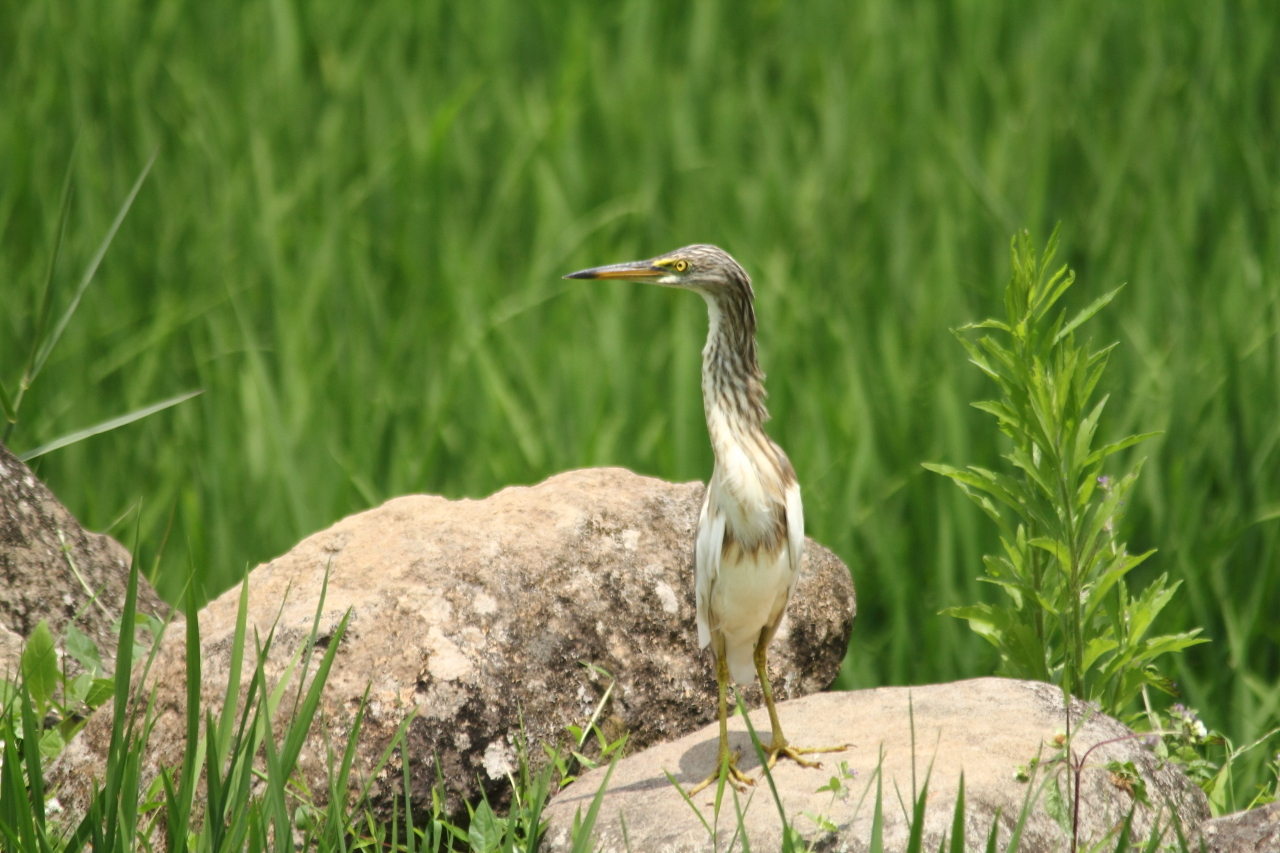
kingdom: Animalia
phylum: Chordata
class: Aves
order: Pelecaniformes
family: Ardeidae
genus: Ardeola
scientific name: Ardeola speciosa
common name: Javan pond heron
